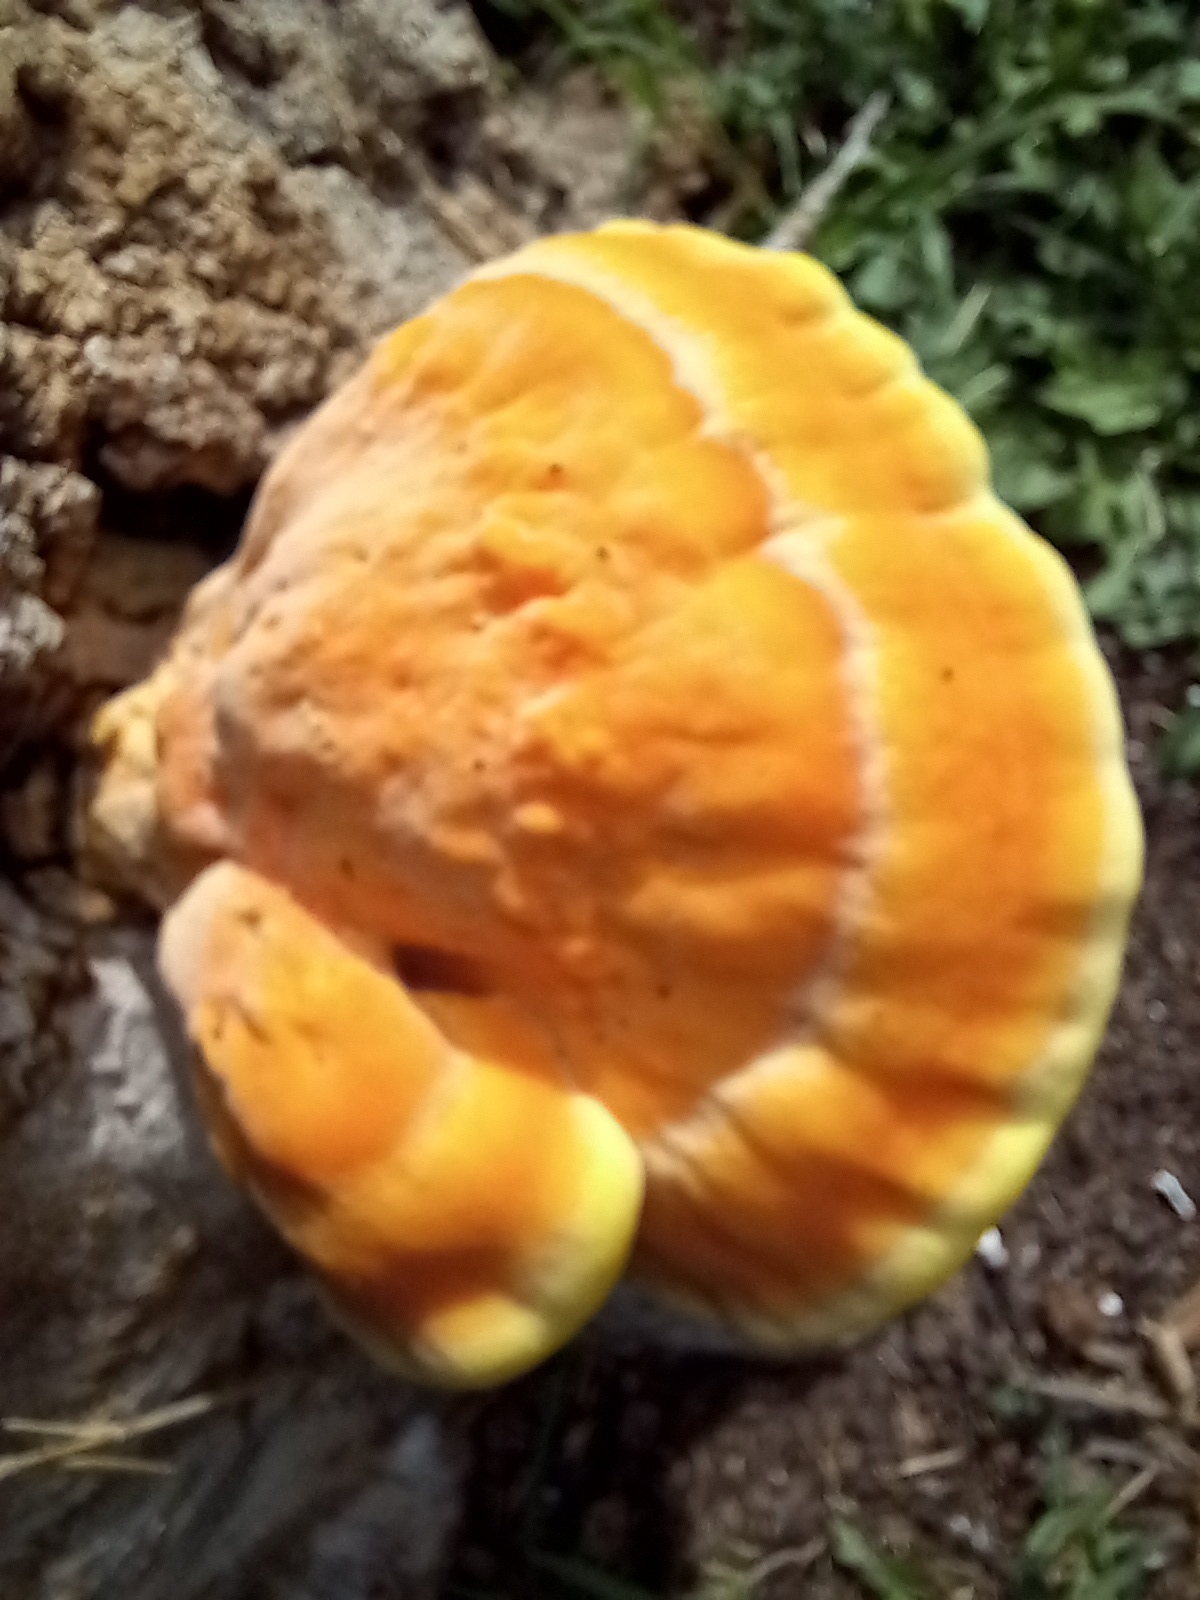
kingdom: Fungi
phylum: Basidiomycota
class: Agaricomycetes
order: Polyporales
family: Laetiporaceae
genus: Laetiporus
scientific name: Laetiporus sulphureus
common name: Chicken of the woods
